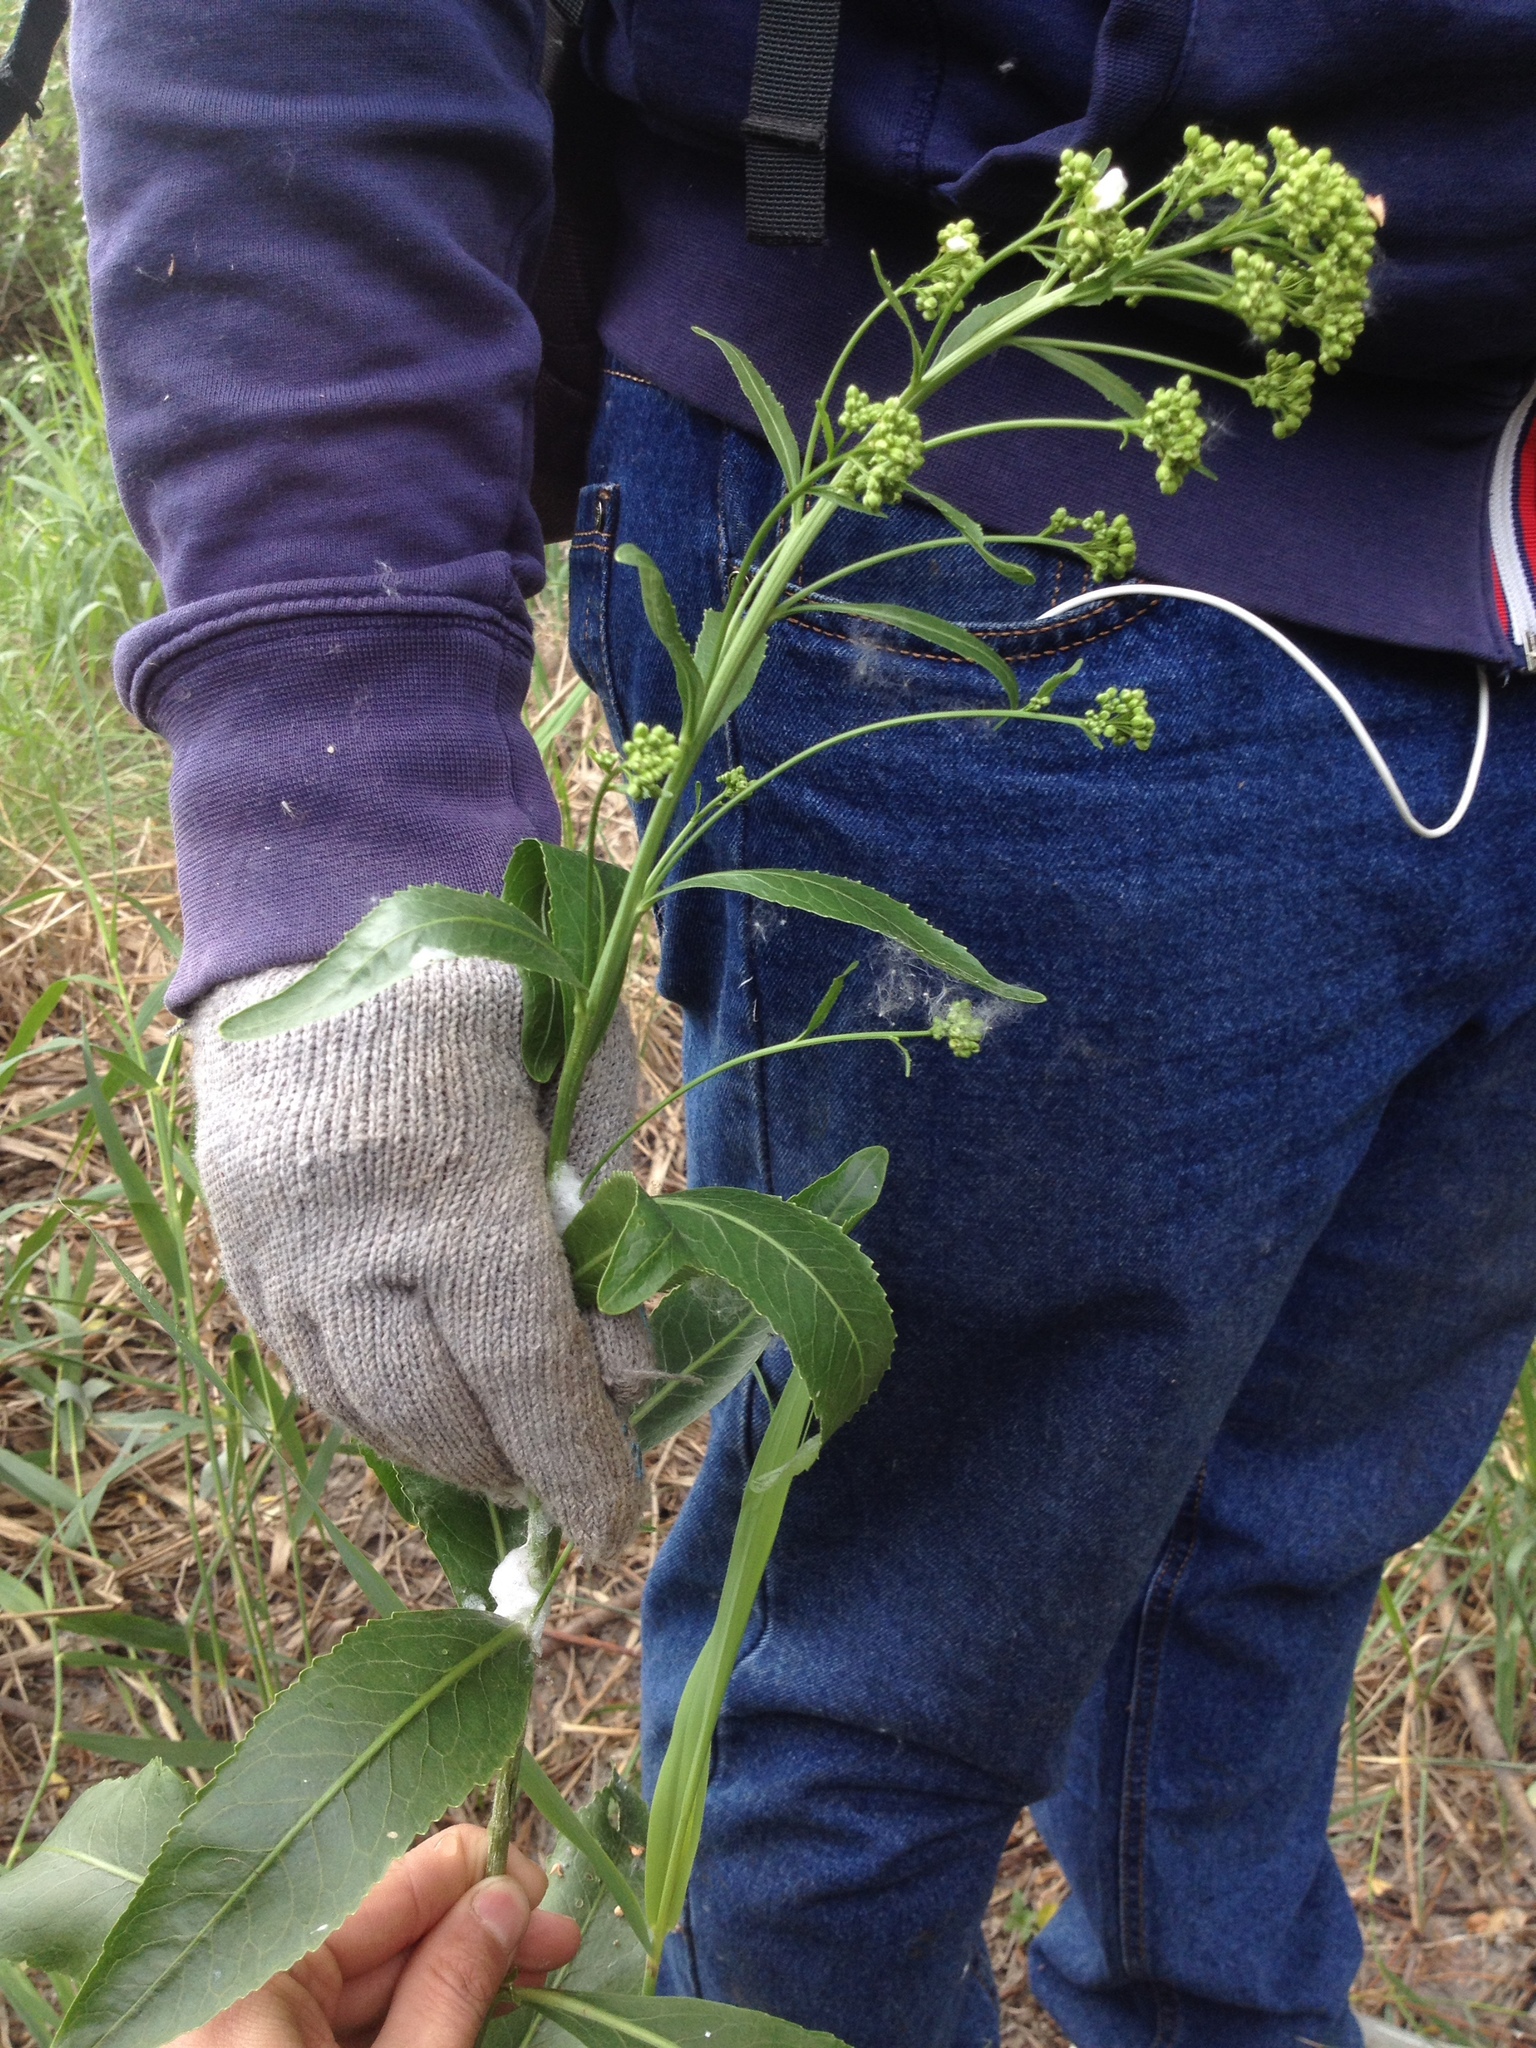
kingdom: Plantae
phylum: Tracheophyta
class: Magnoliopsida
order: Brassicales
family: Brassicaceae
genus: Armoracia
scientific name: Armoracia rusticana
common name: Horseradish
